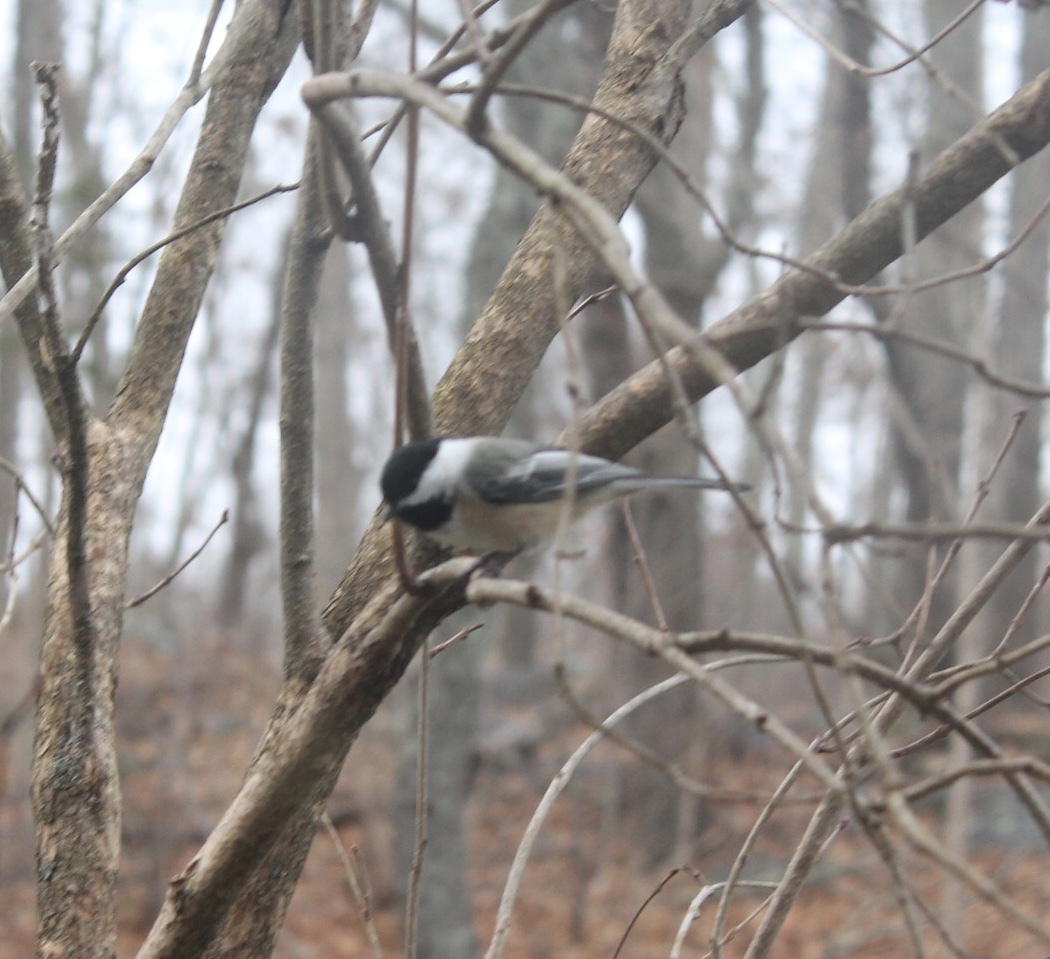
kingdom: Animalia
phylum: Chordata
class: Aves
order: Passeriformes
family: Paridae
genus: Poecile
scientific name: Poecile atricapillus
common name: Black-capped chickadee
